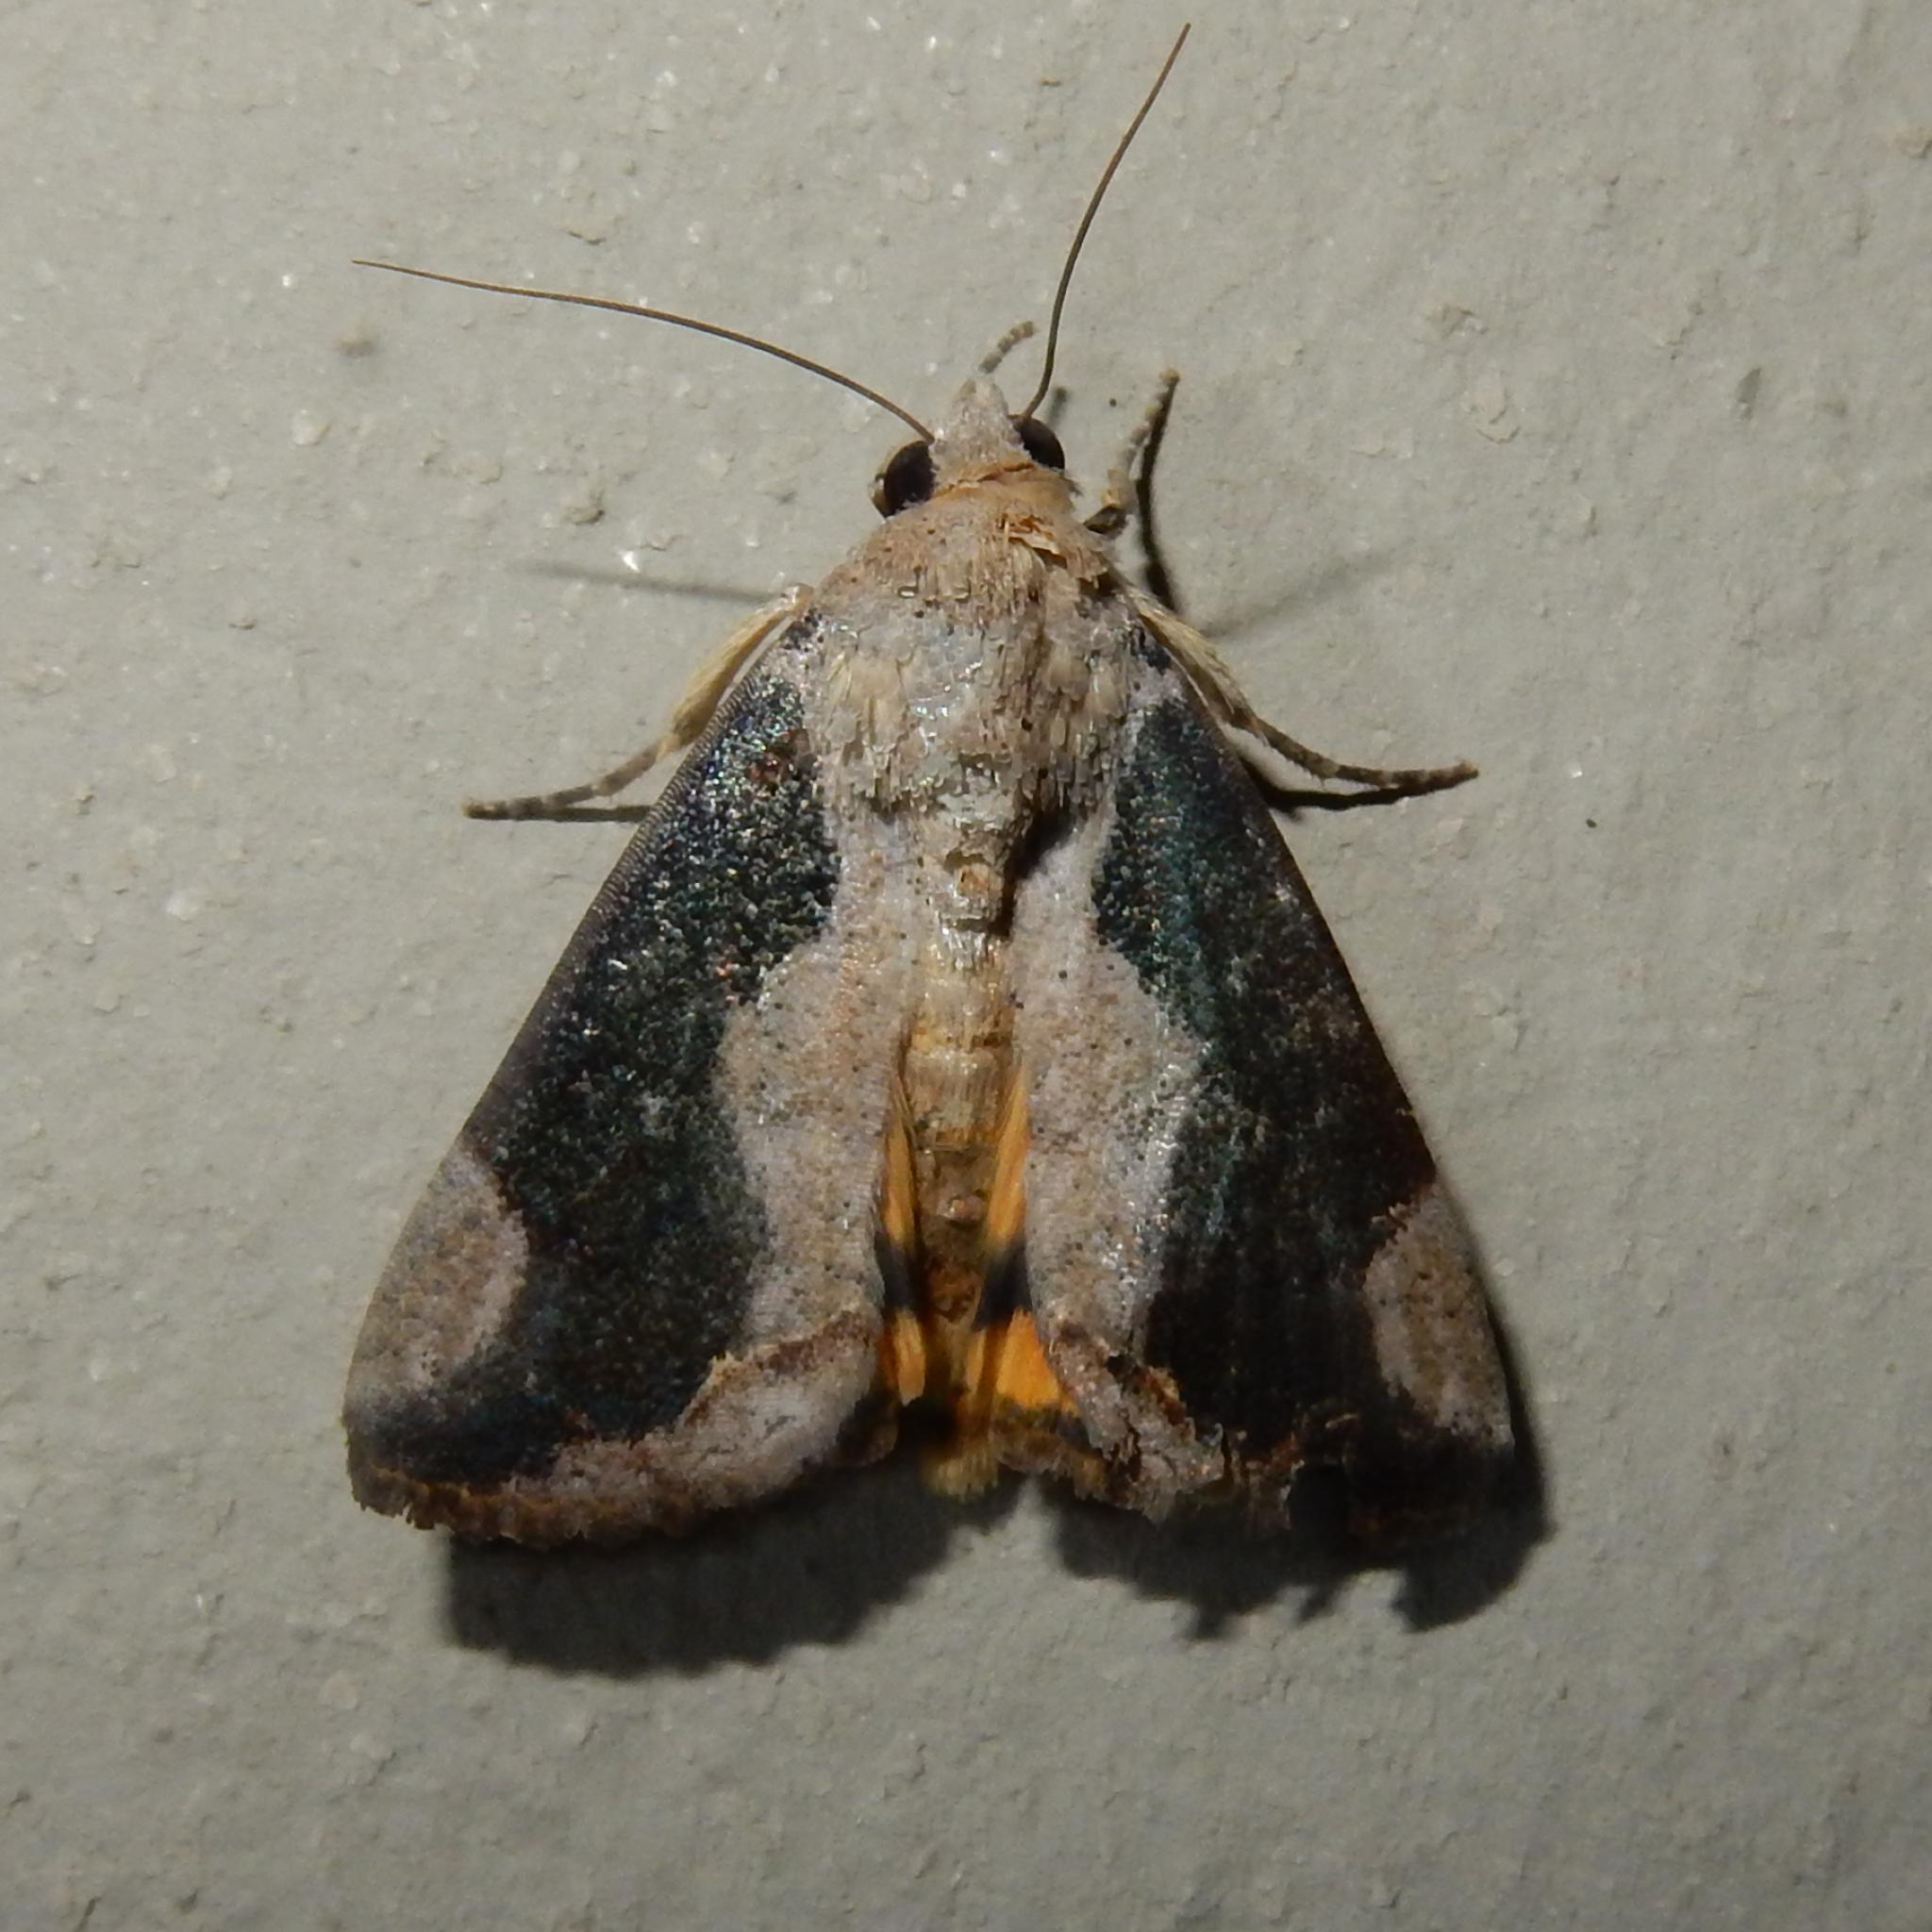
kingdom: Animalia
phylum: Arthropoda
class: Insecta
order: Lepidoptera
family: Erebidae
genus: Hypocala
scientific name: Hypocala rostrata
